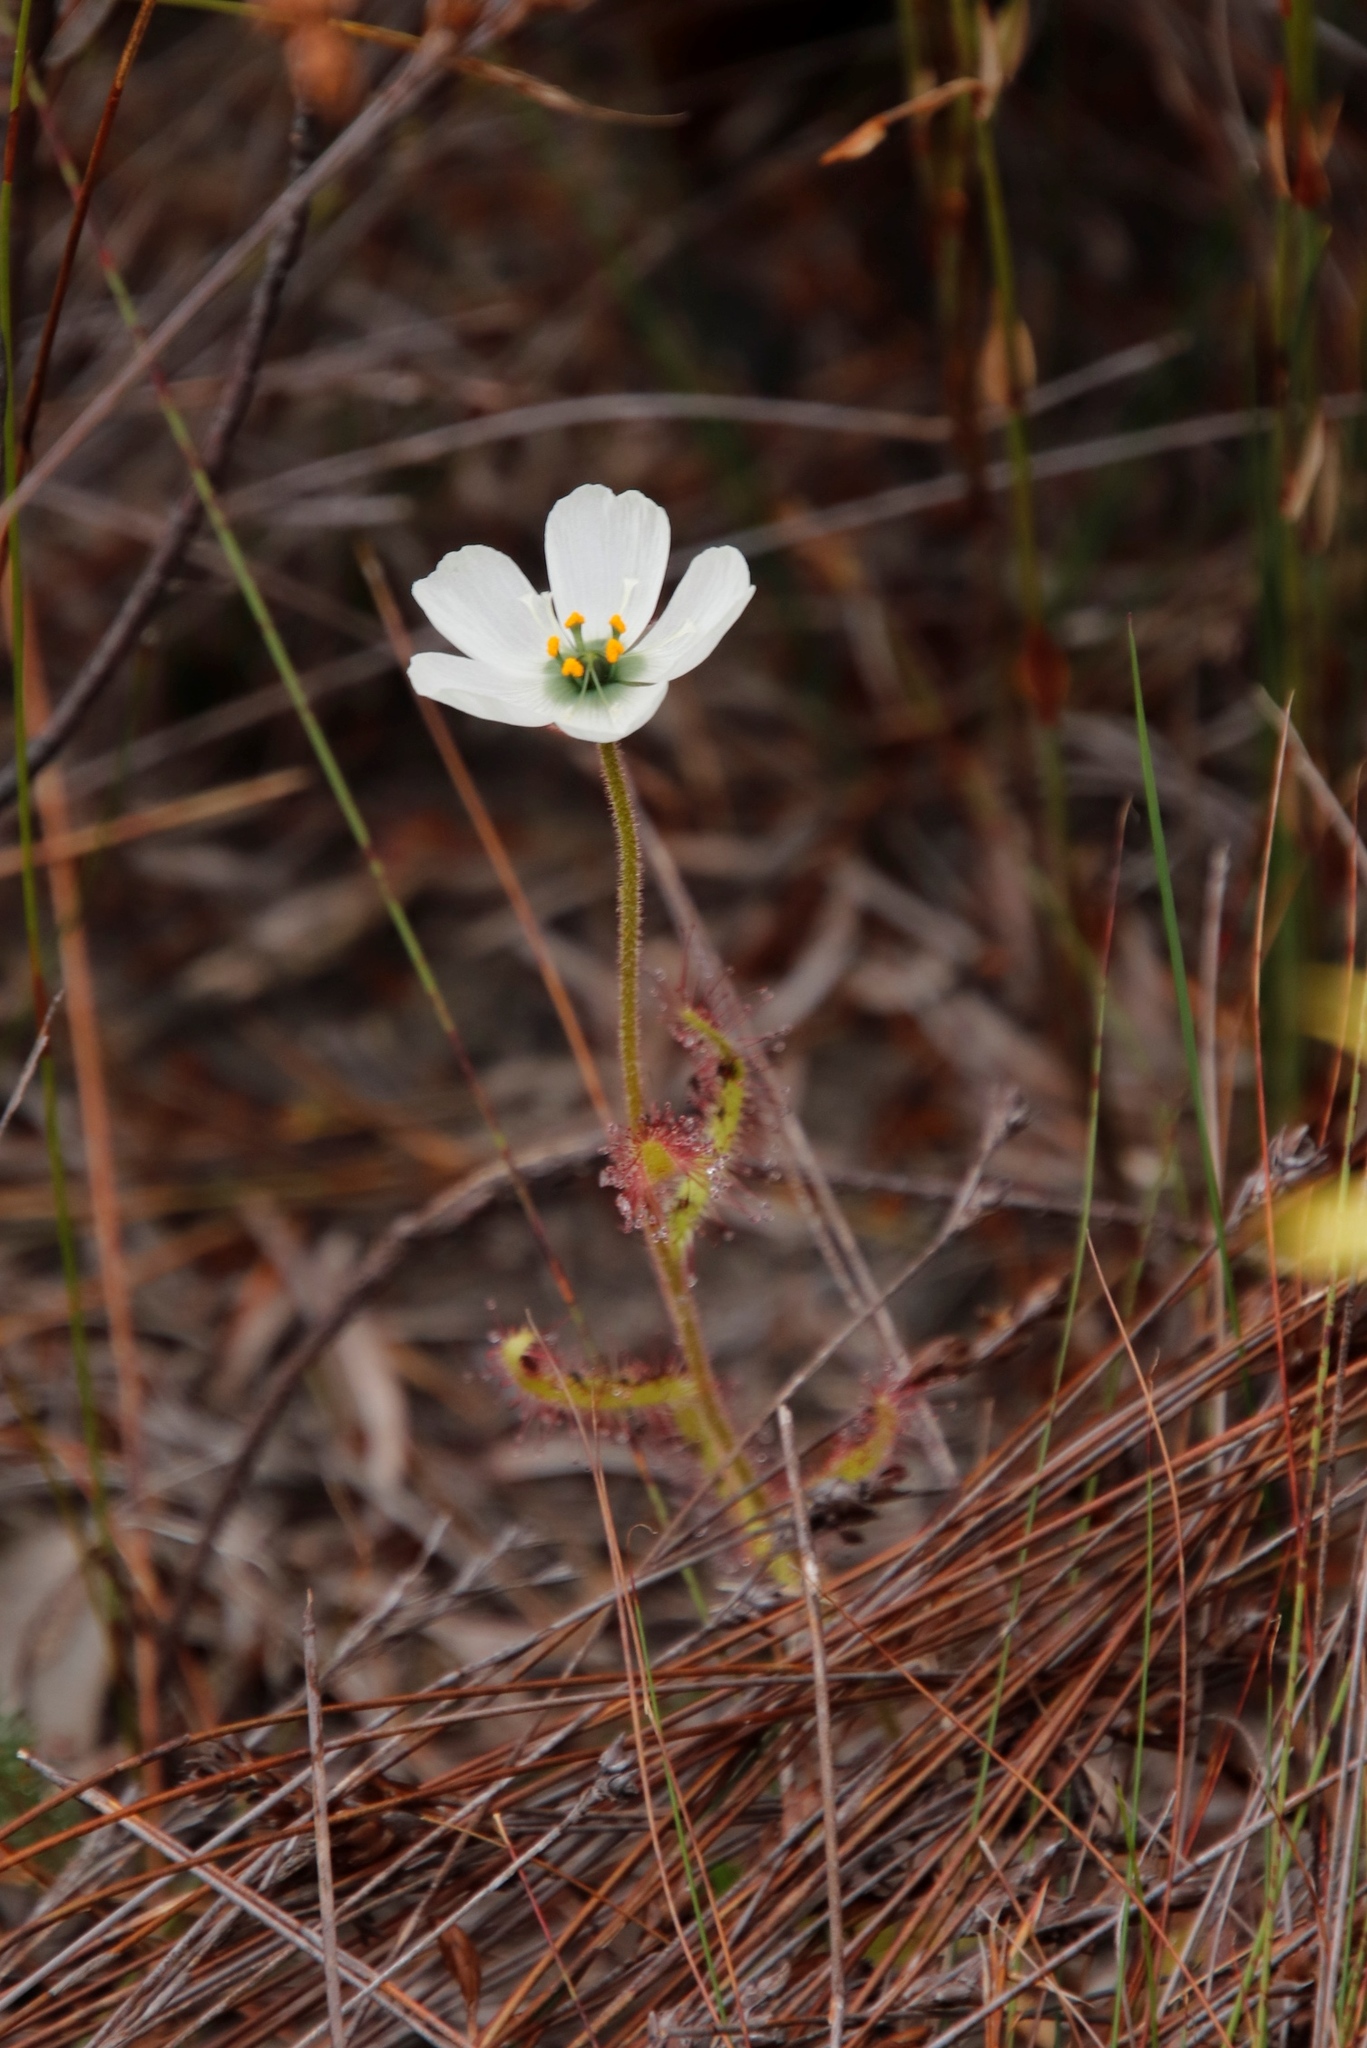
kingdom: Plantae
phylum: Tracheophyta
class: Magnoliopsida
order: Caryophyllales
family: Droseraceae
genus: Drosera
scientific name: Drosera cistiflora
